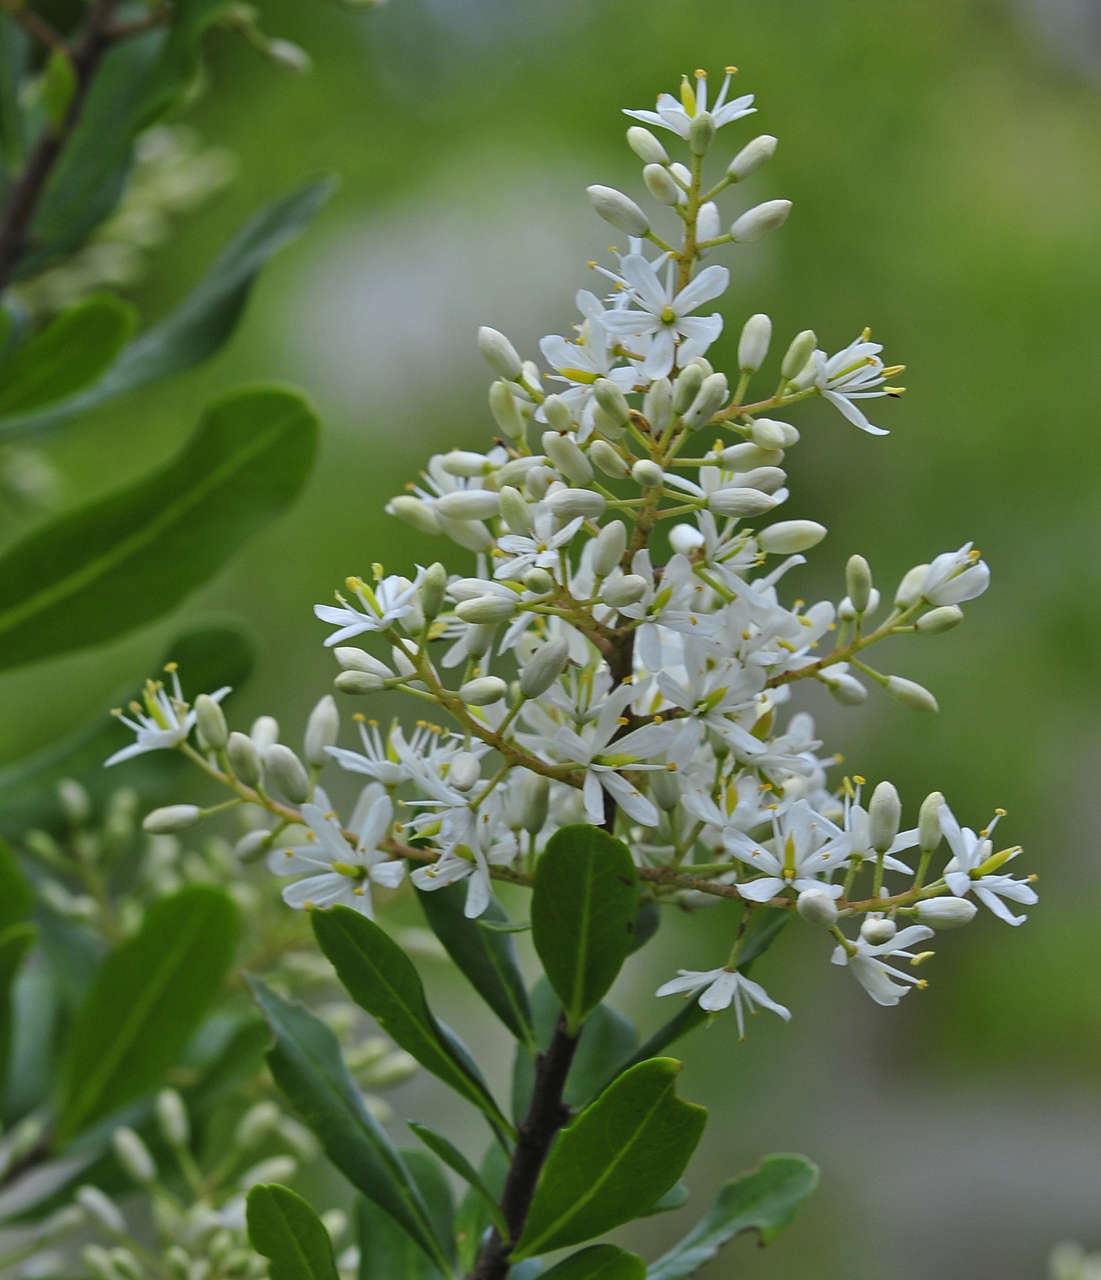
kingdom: Plantae
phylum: Tracheophyta
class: Magnoliopsida
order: Apiales
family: Pittosporaceae
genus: Bursaria
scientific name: Bursaria spinosa
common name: Australian blackthorn
